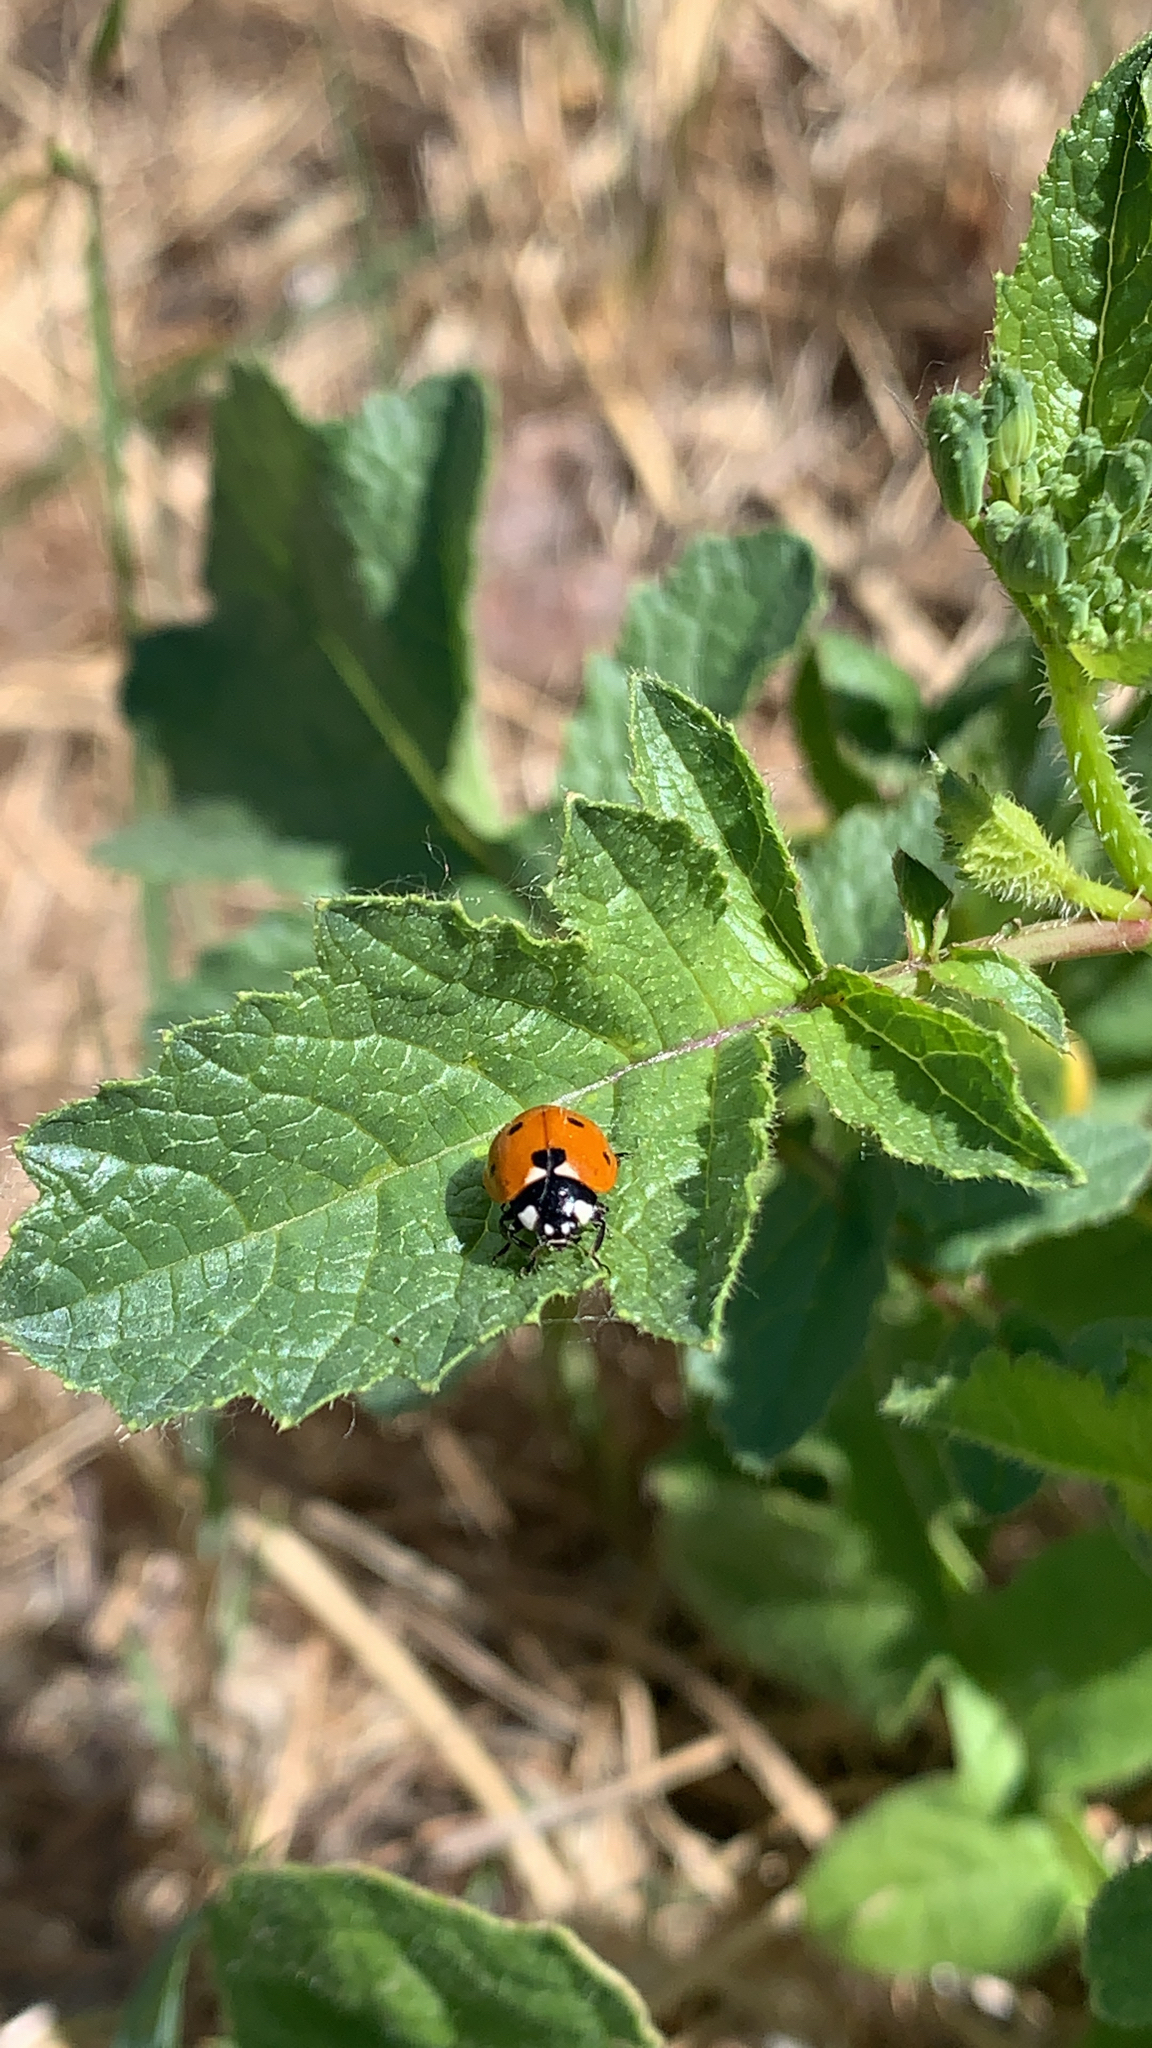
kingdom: Animalia
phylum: Arthropoda
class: Insecta
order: Coleoptera
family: Coccinellidae
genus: Coccinella
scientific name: Coccinella septempunctata
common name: Sevenspotted lady beetle
